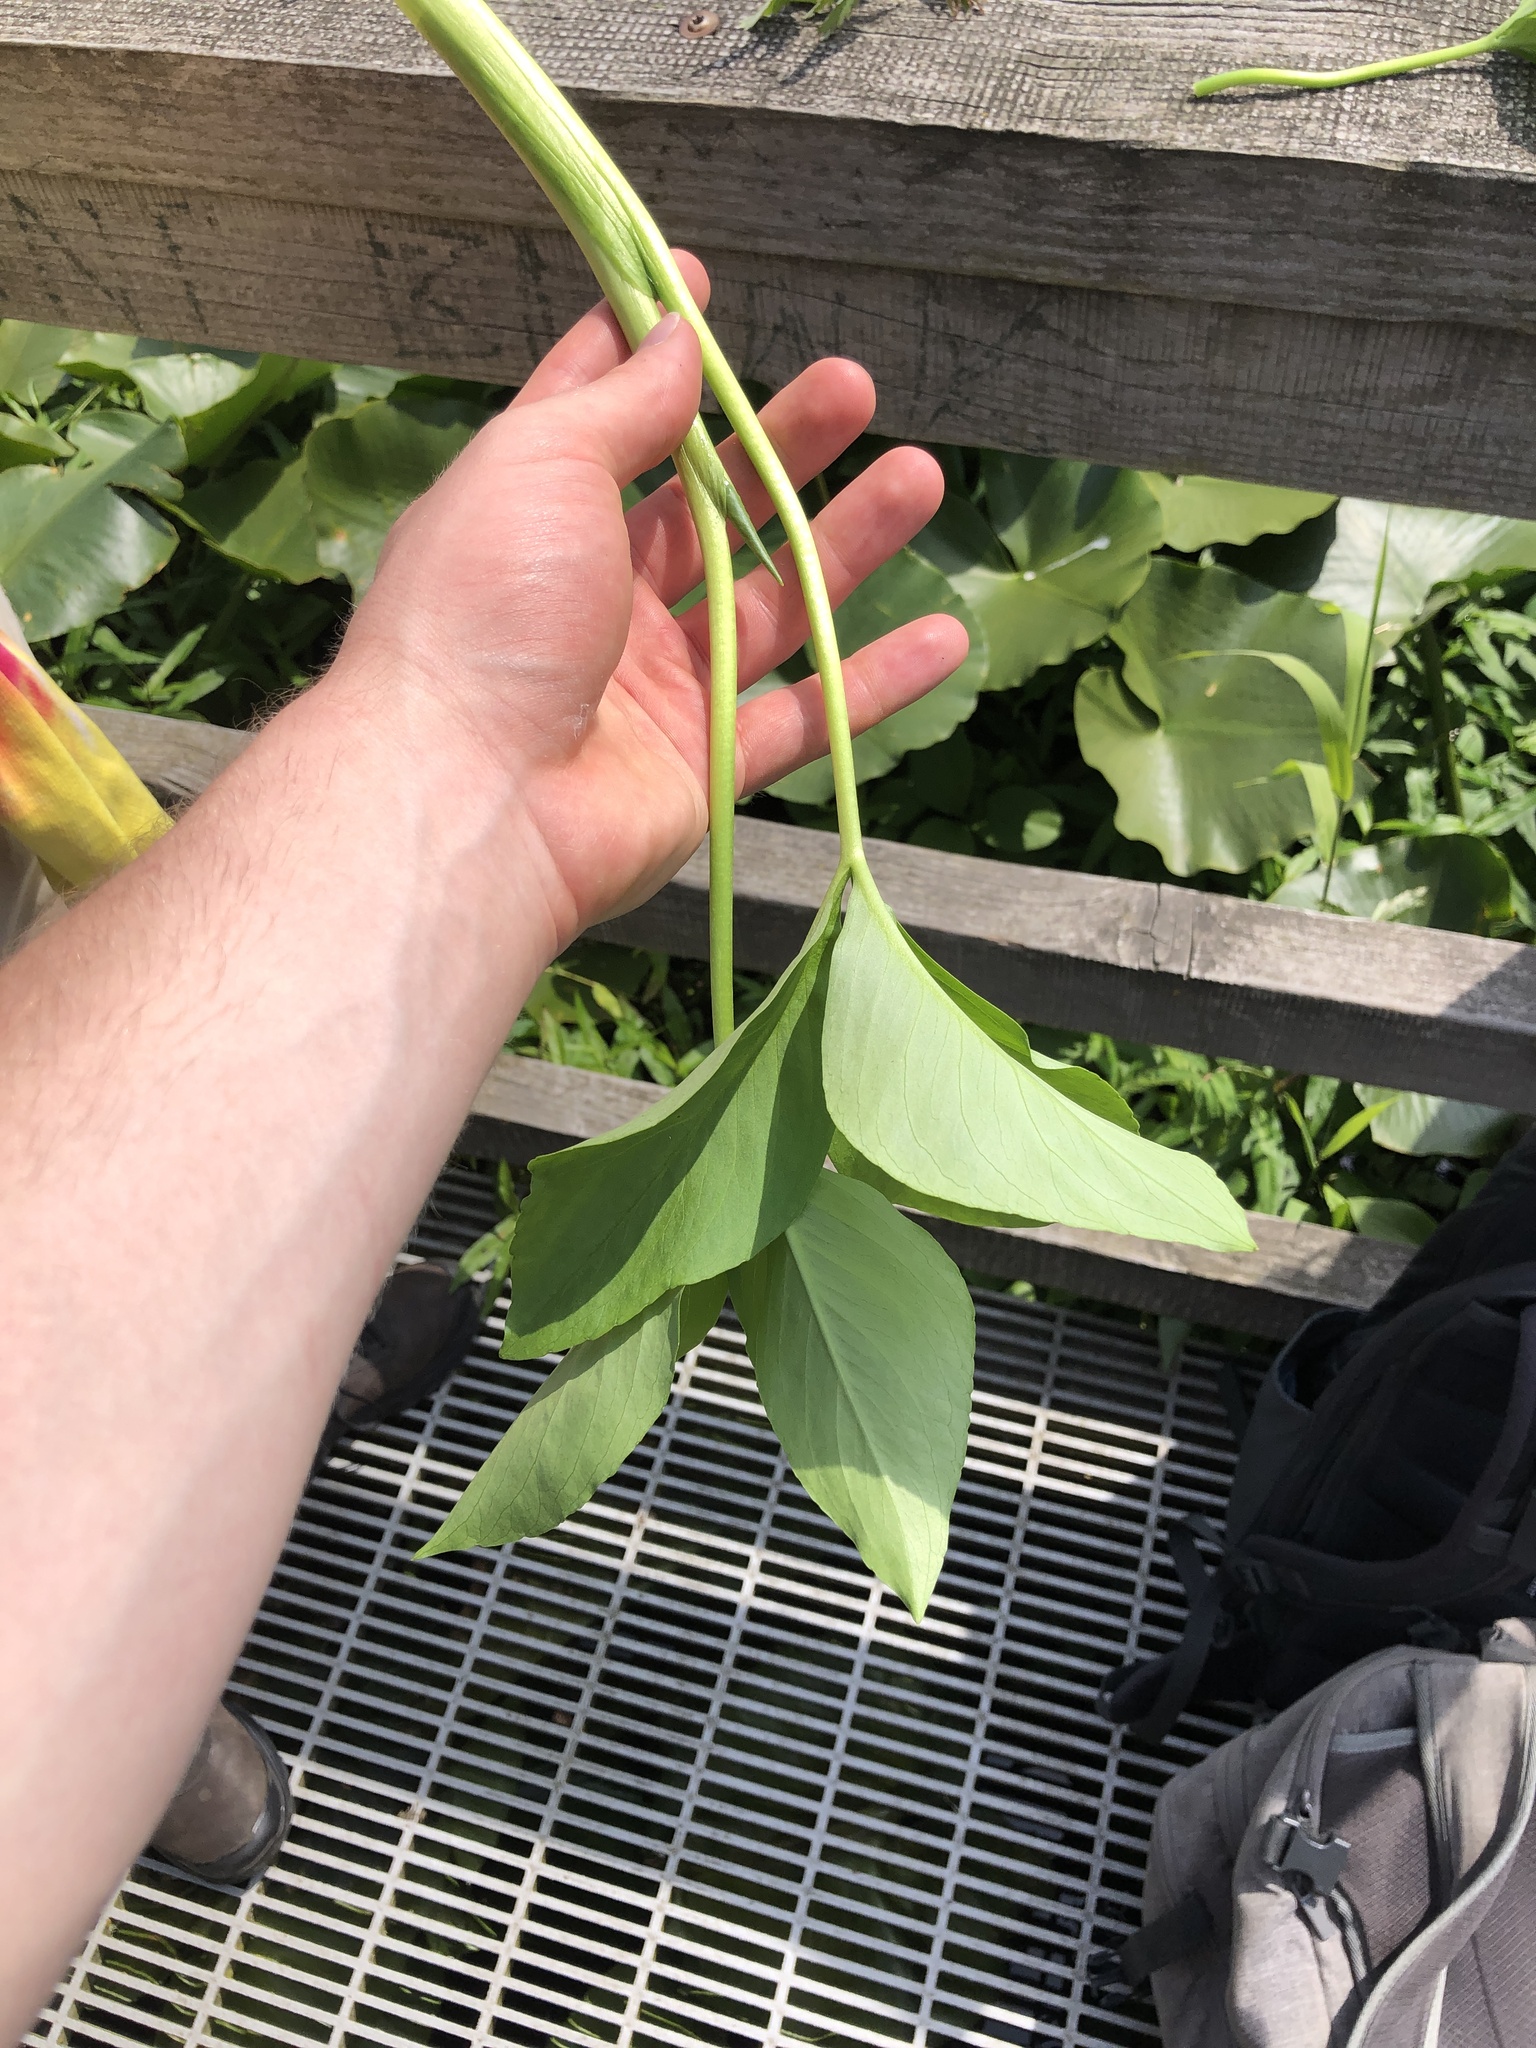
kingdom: Plantae
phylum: Tracheophyta
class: Magnoliopsida
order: Asterales
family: Menyanthaceae
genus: Menyanthes
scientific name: Menyanthes trifoliata
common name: Bogbean
